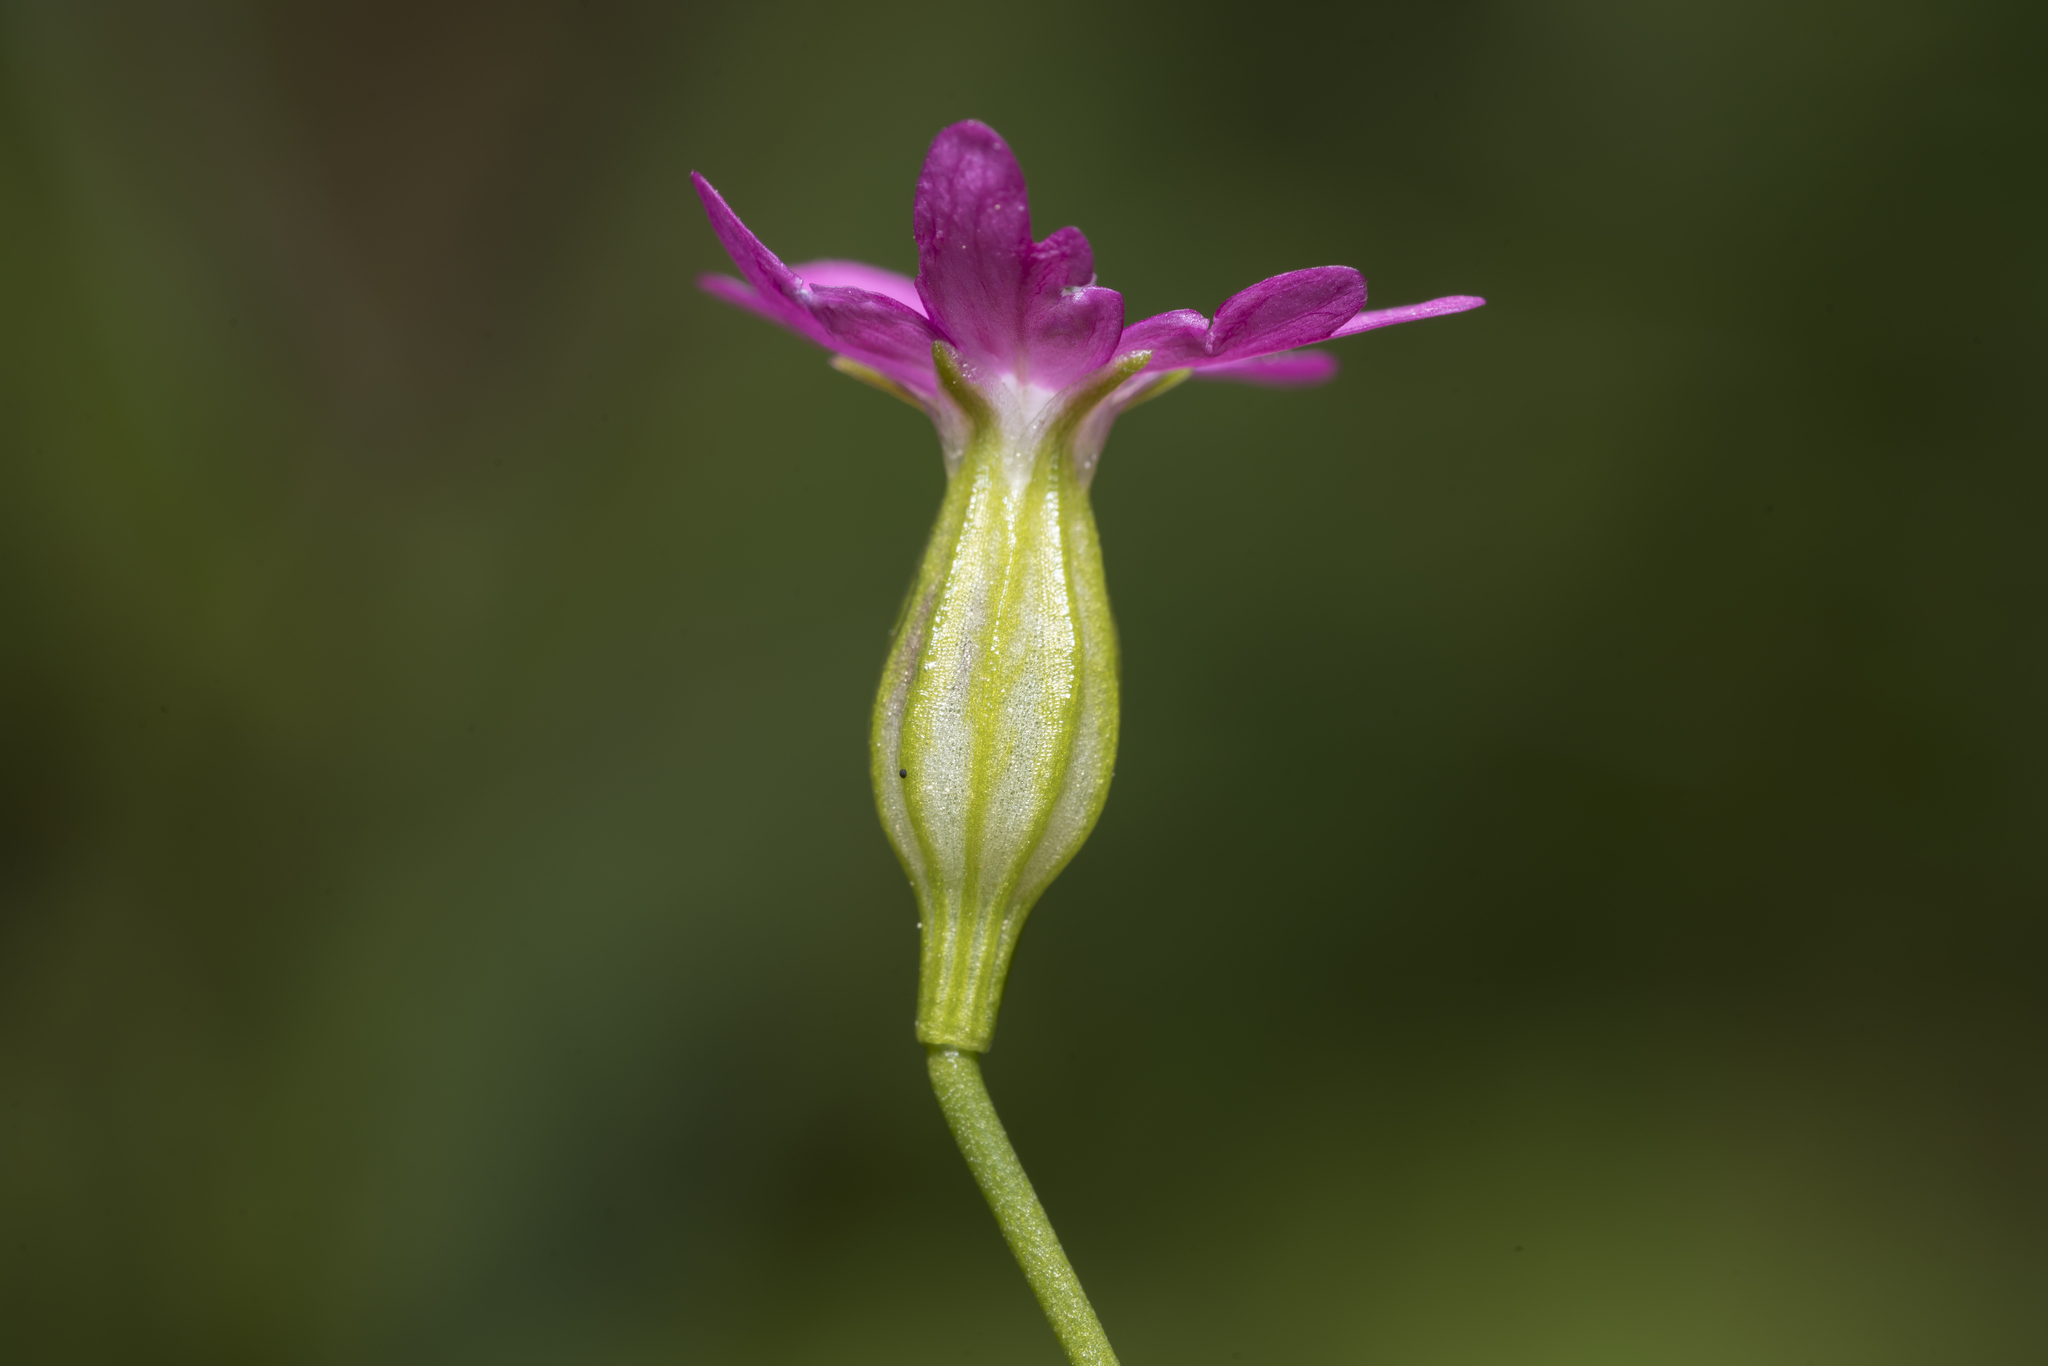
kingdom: Plantae
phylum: Tracheophyta
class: Magnoliopsida
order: Caryophyllales
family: Caryophyllaceae
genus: Silene
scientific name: Silene cretica
